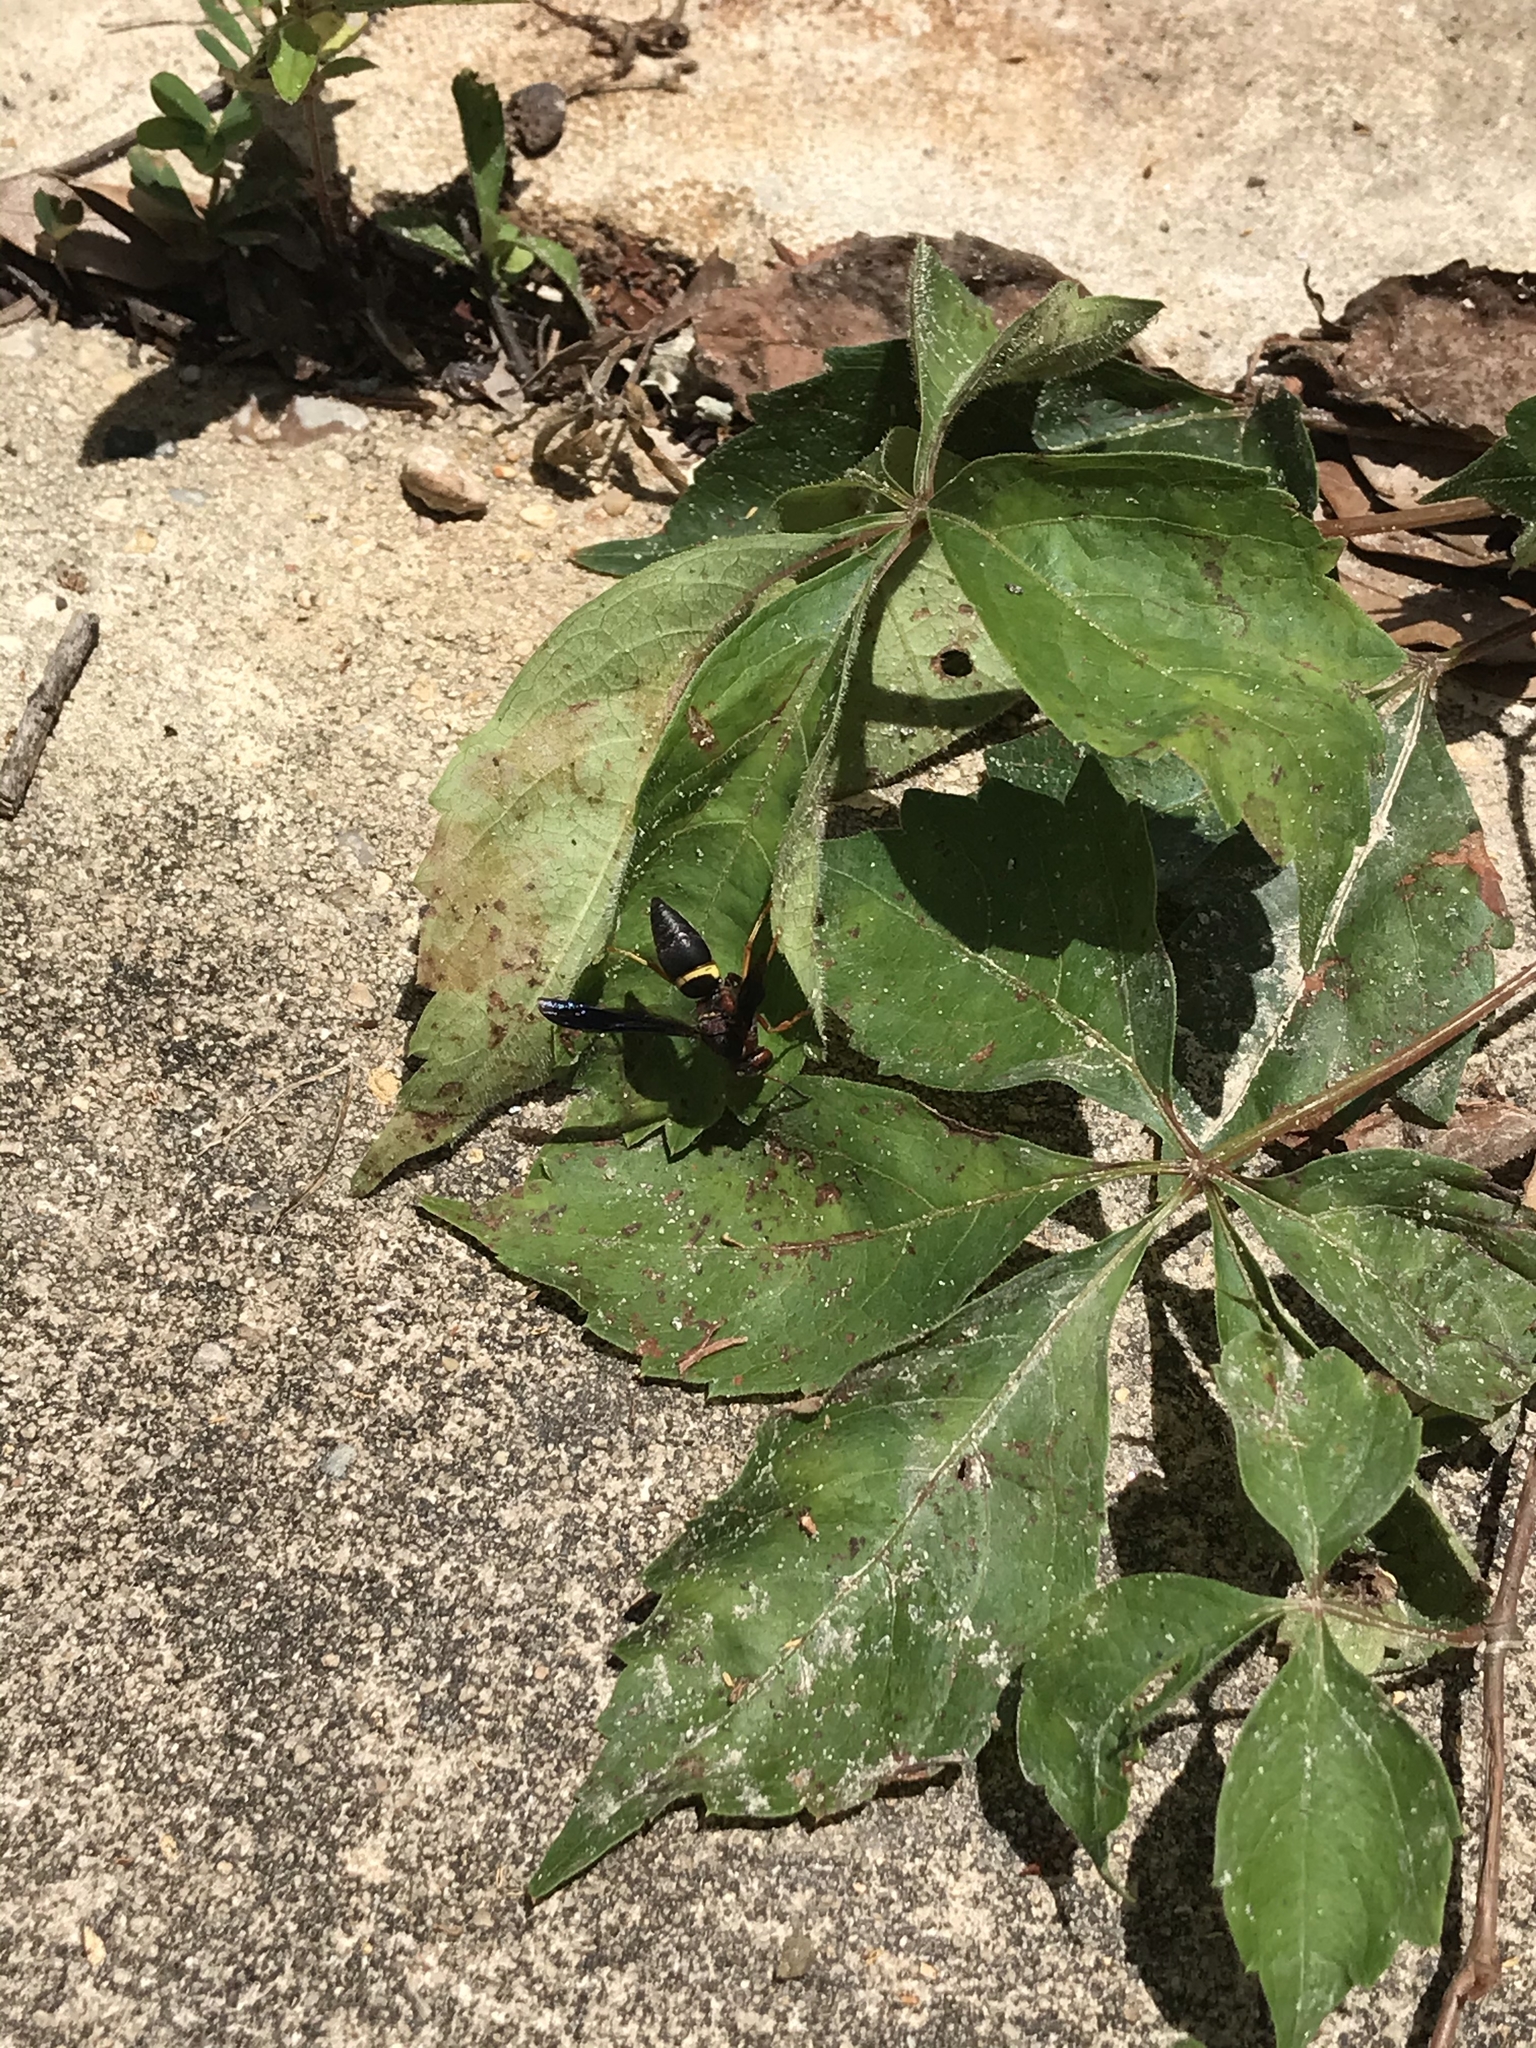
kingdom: Animalia
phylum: Arthropoda
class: Insecta
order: Hymenoptera
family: Eumenidae
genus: Euodynerus
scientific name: Euodynerus crypticus
